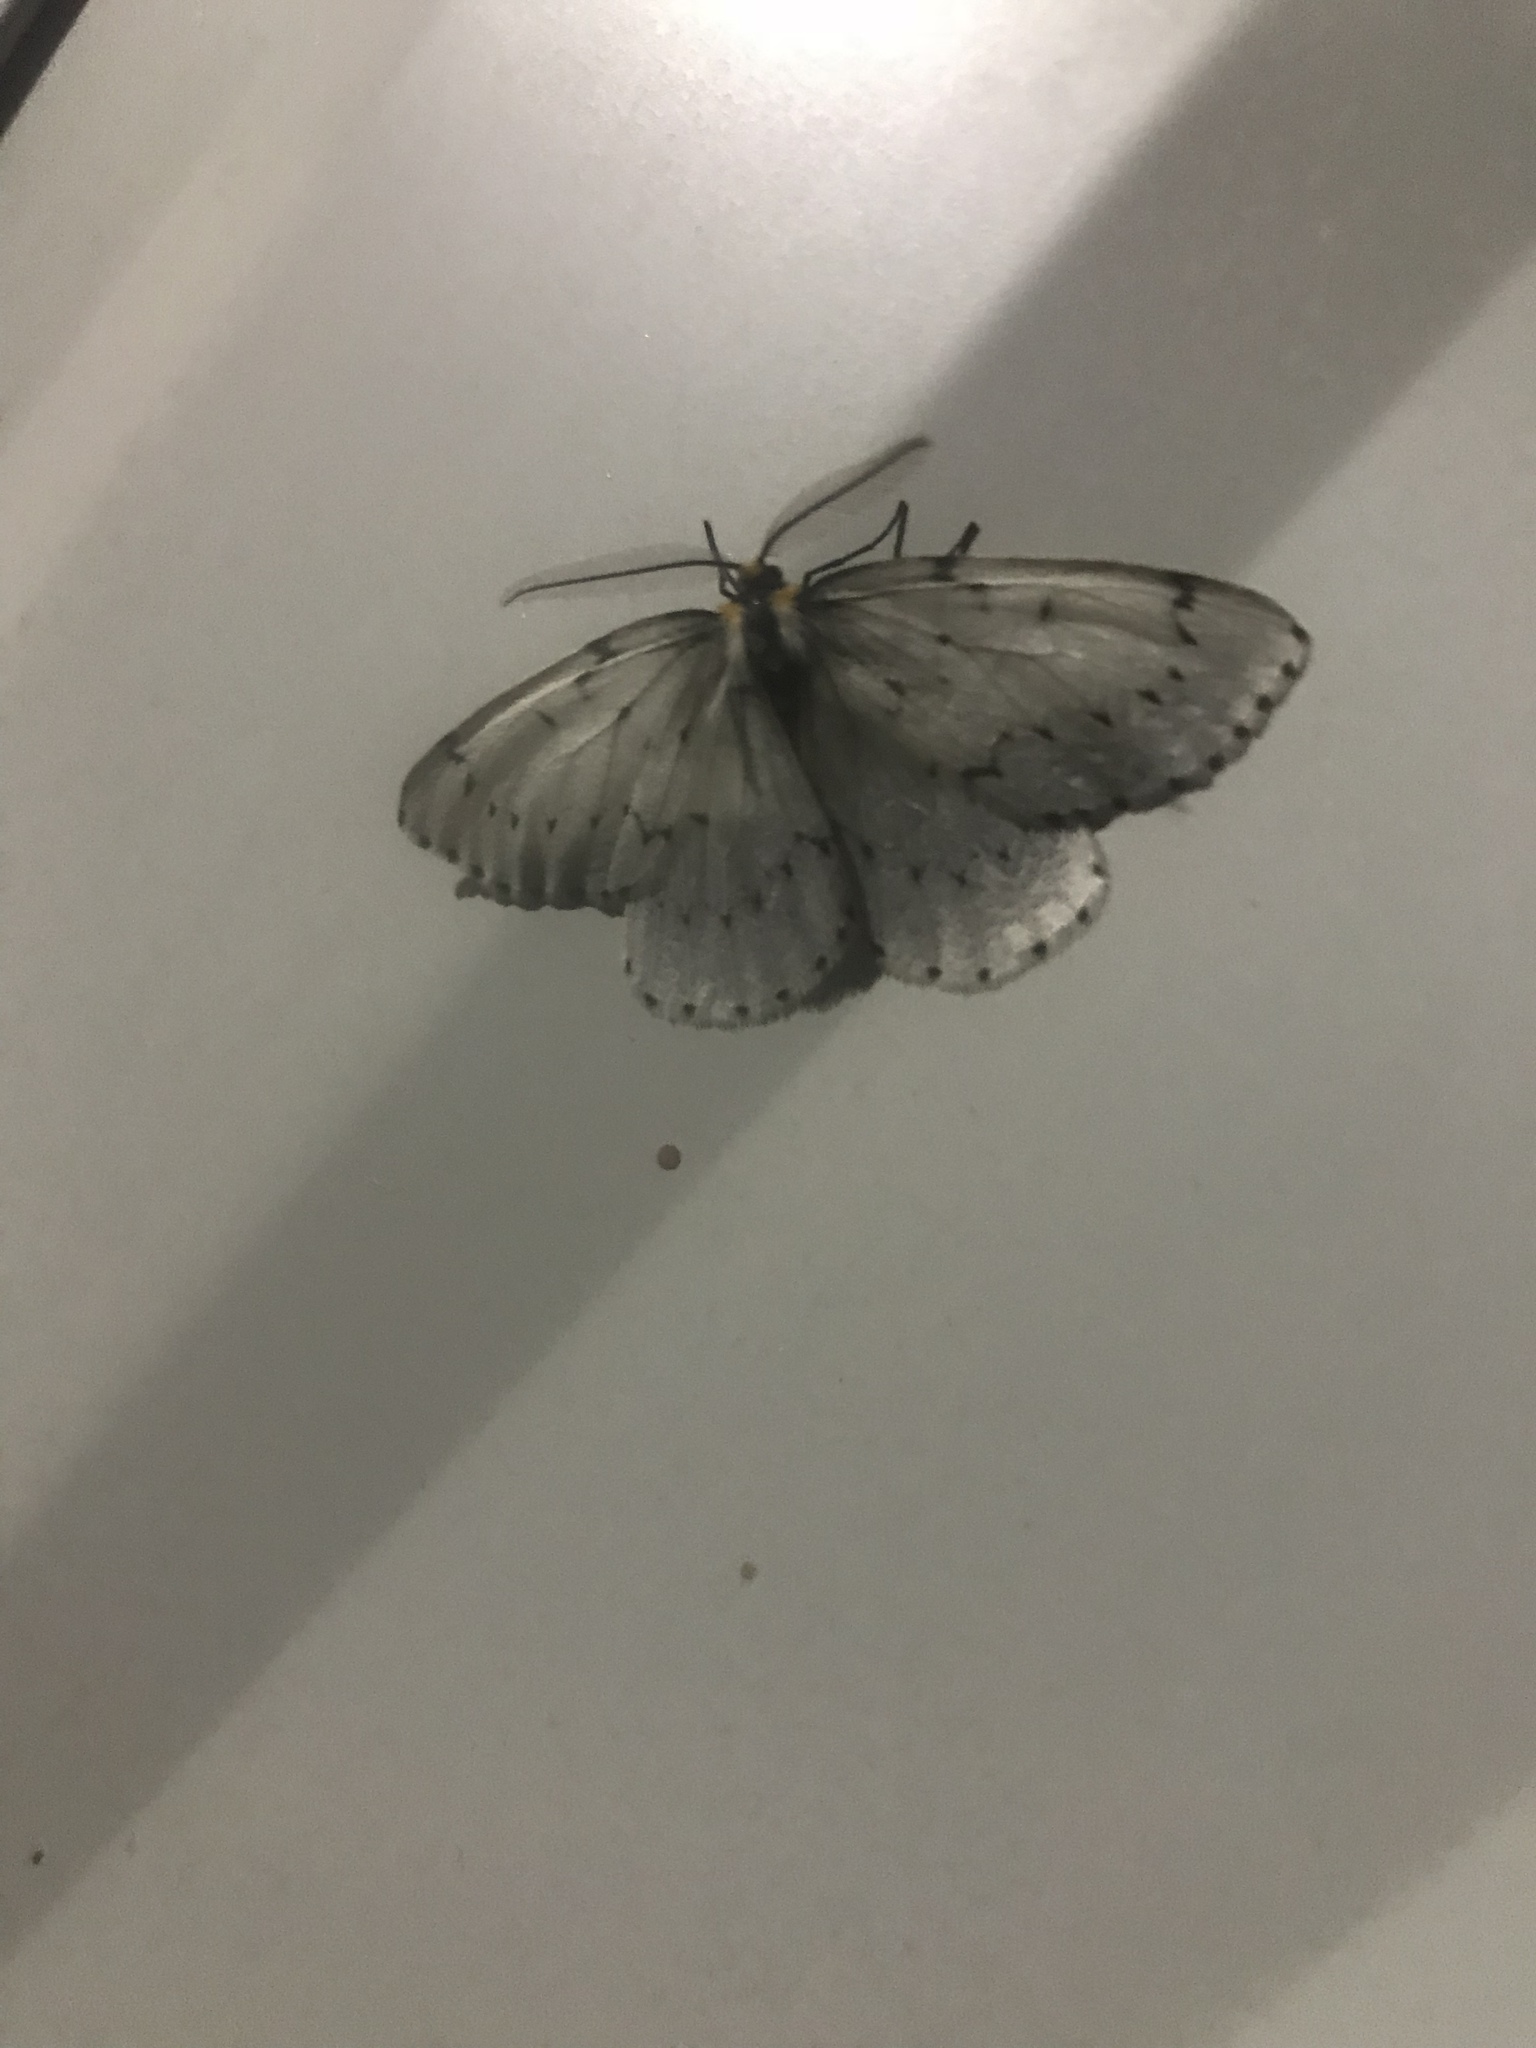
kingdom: Animalia
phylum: Arthropoda
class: Insecta
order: Lepidoptera
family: Geometridae
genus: Cingilia
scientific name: Cingilia catenaria
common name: Chain-dotted geometer
